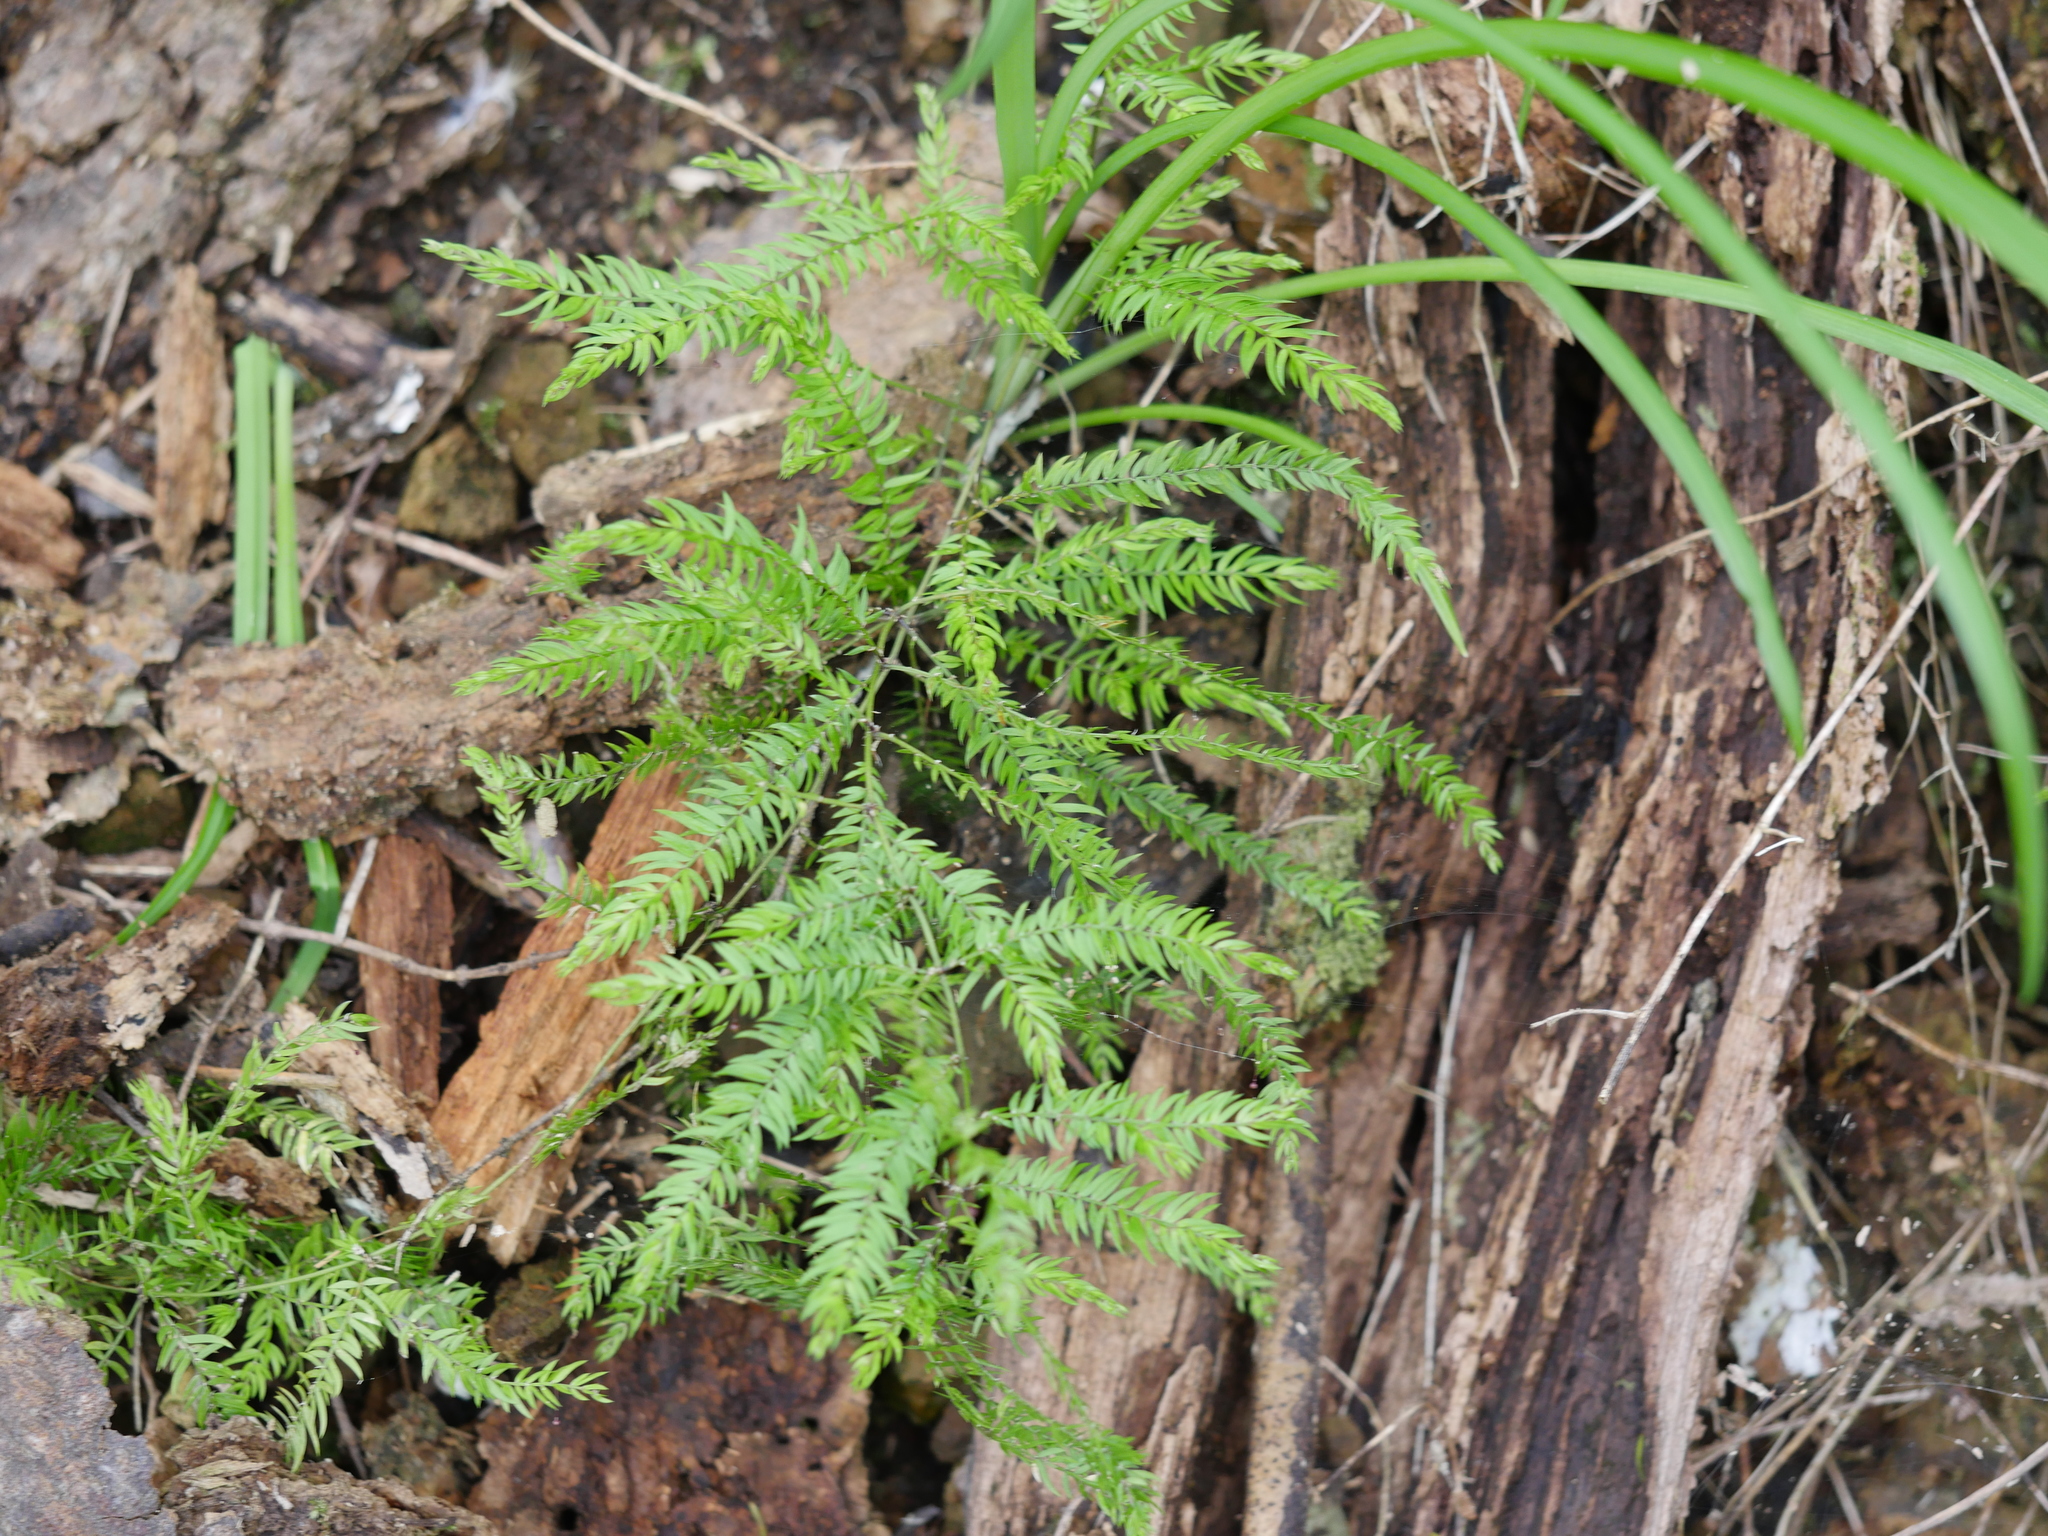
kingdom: Plantae
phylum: Tracheophyta
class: Liliopsida
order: Asparagales
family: Asparagaceae
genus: Asparagus
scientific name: Asparagus scandens
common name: Asparagus-fern
